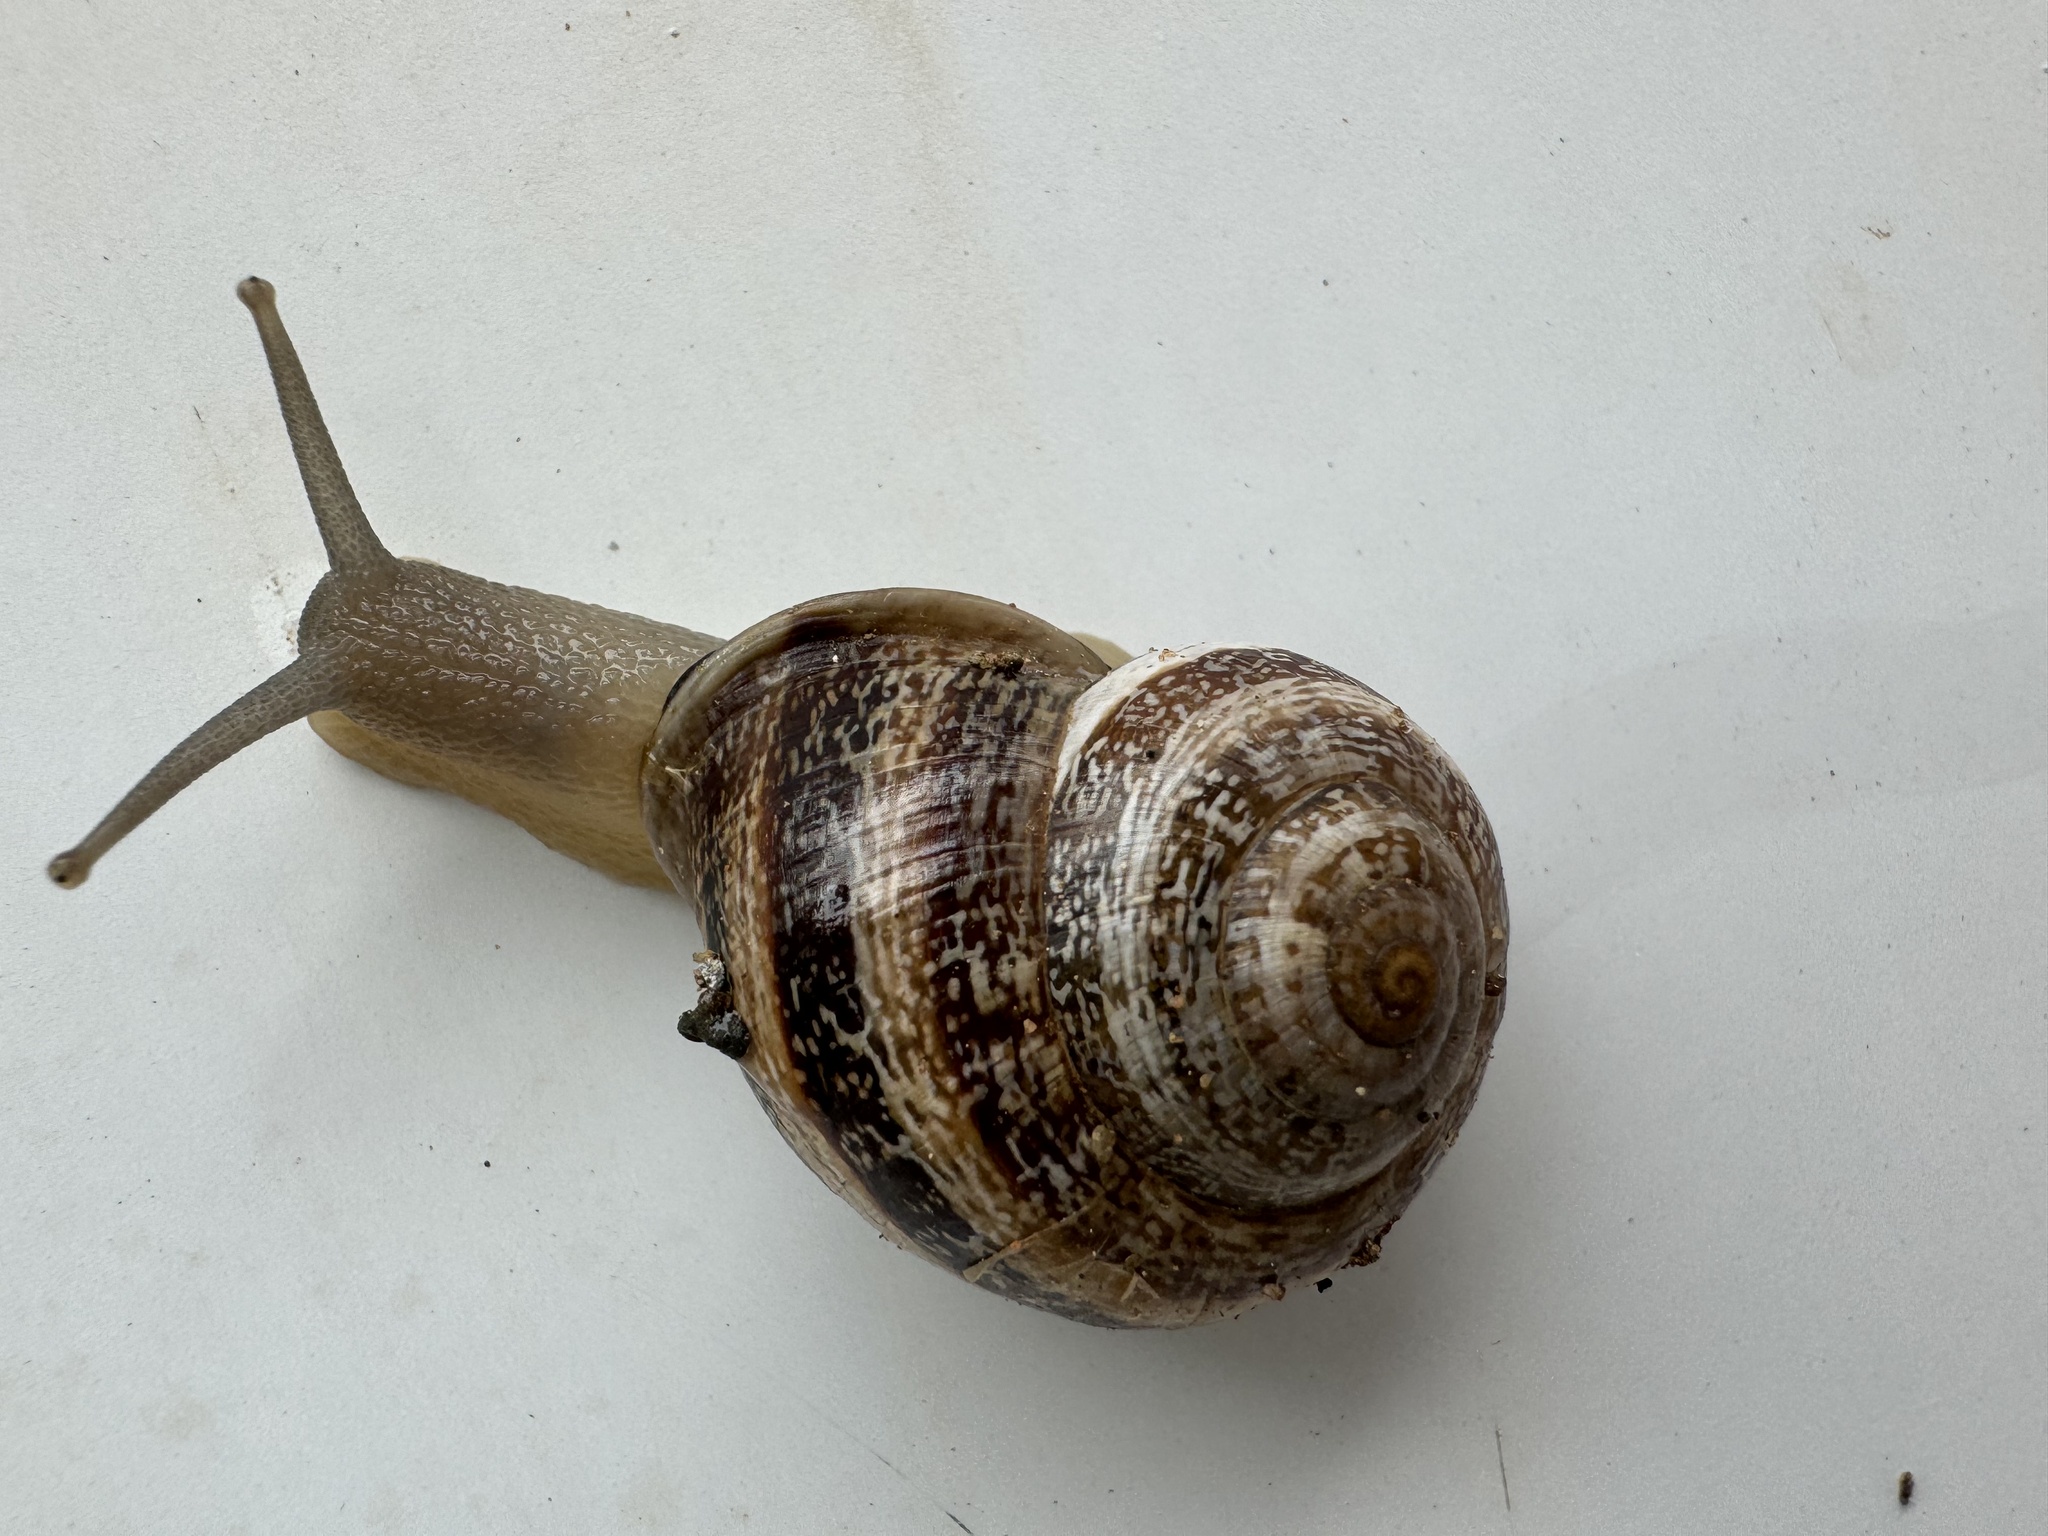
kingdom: Animalia
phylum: Mollusca
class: Gastropoda
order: Stylommatophora
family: Helicidae
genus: Otala
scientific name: Otala lactea
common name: Milk snail
